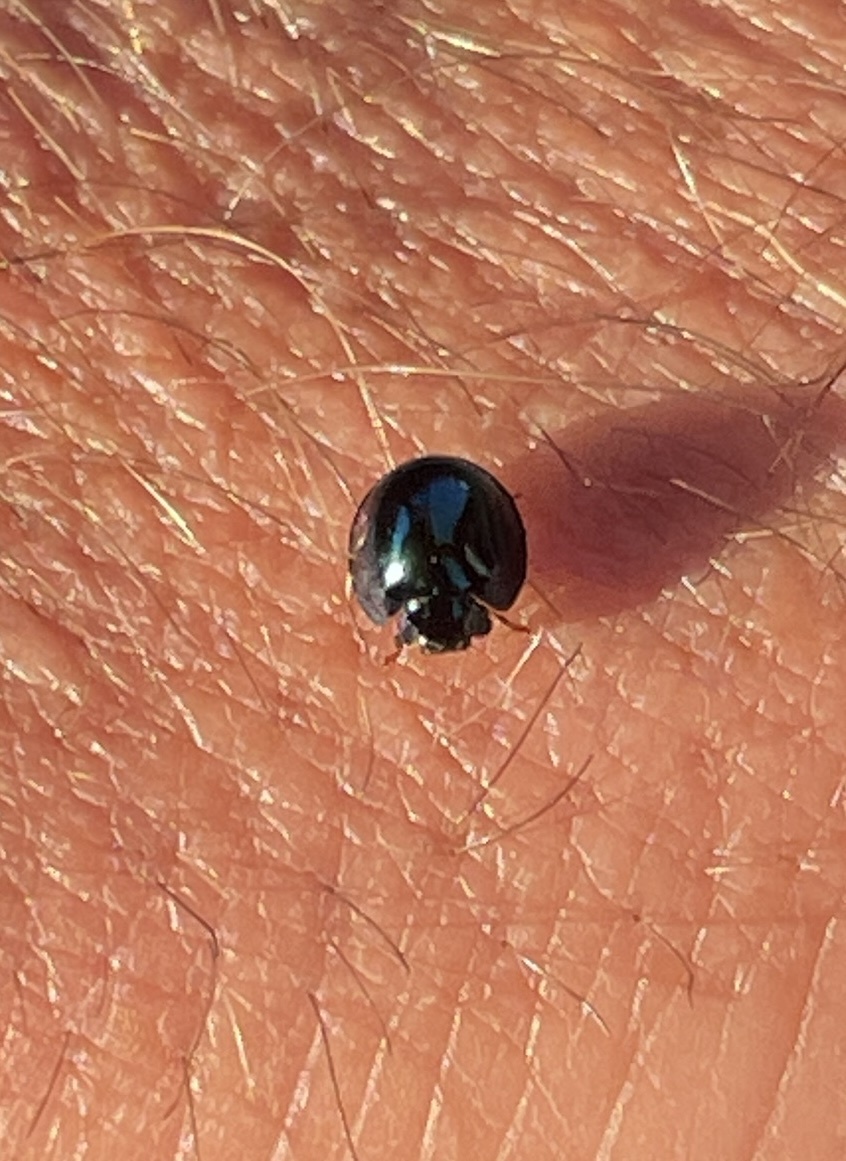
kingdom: Animalia
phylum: Arthropoda
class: Insecta
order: Coleoptera
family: Coccinellidae
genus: Halmus
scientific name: Halmus chalybeus
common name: Steel blue ladybird beetle
